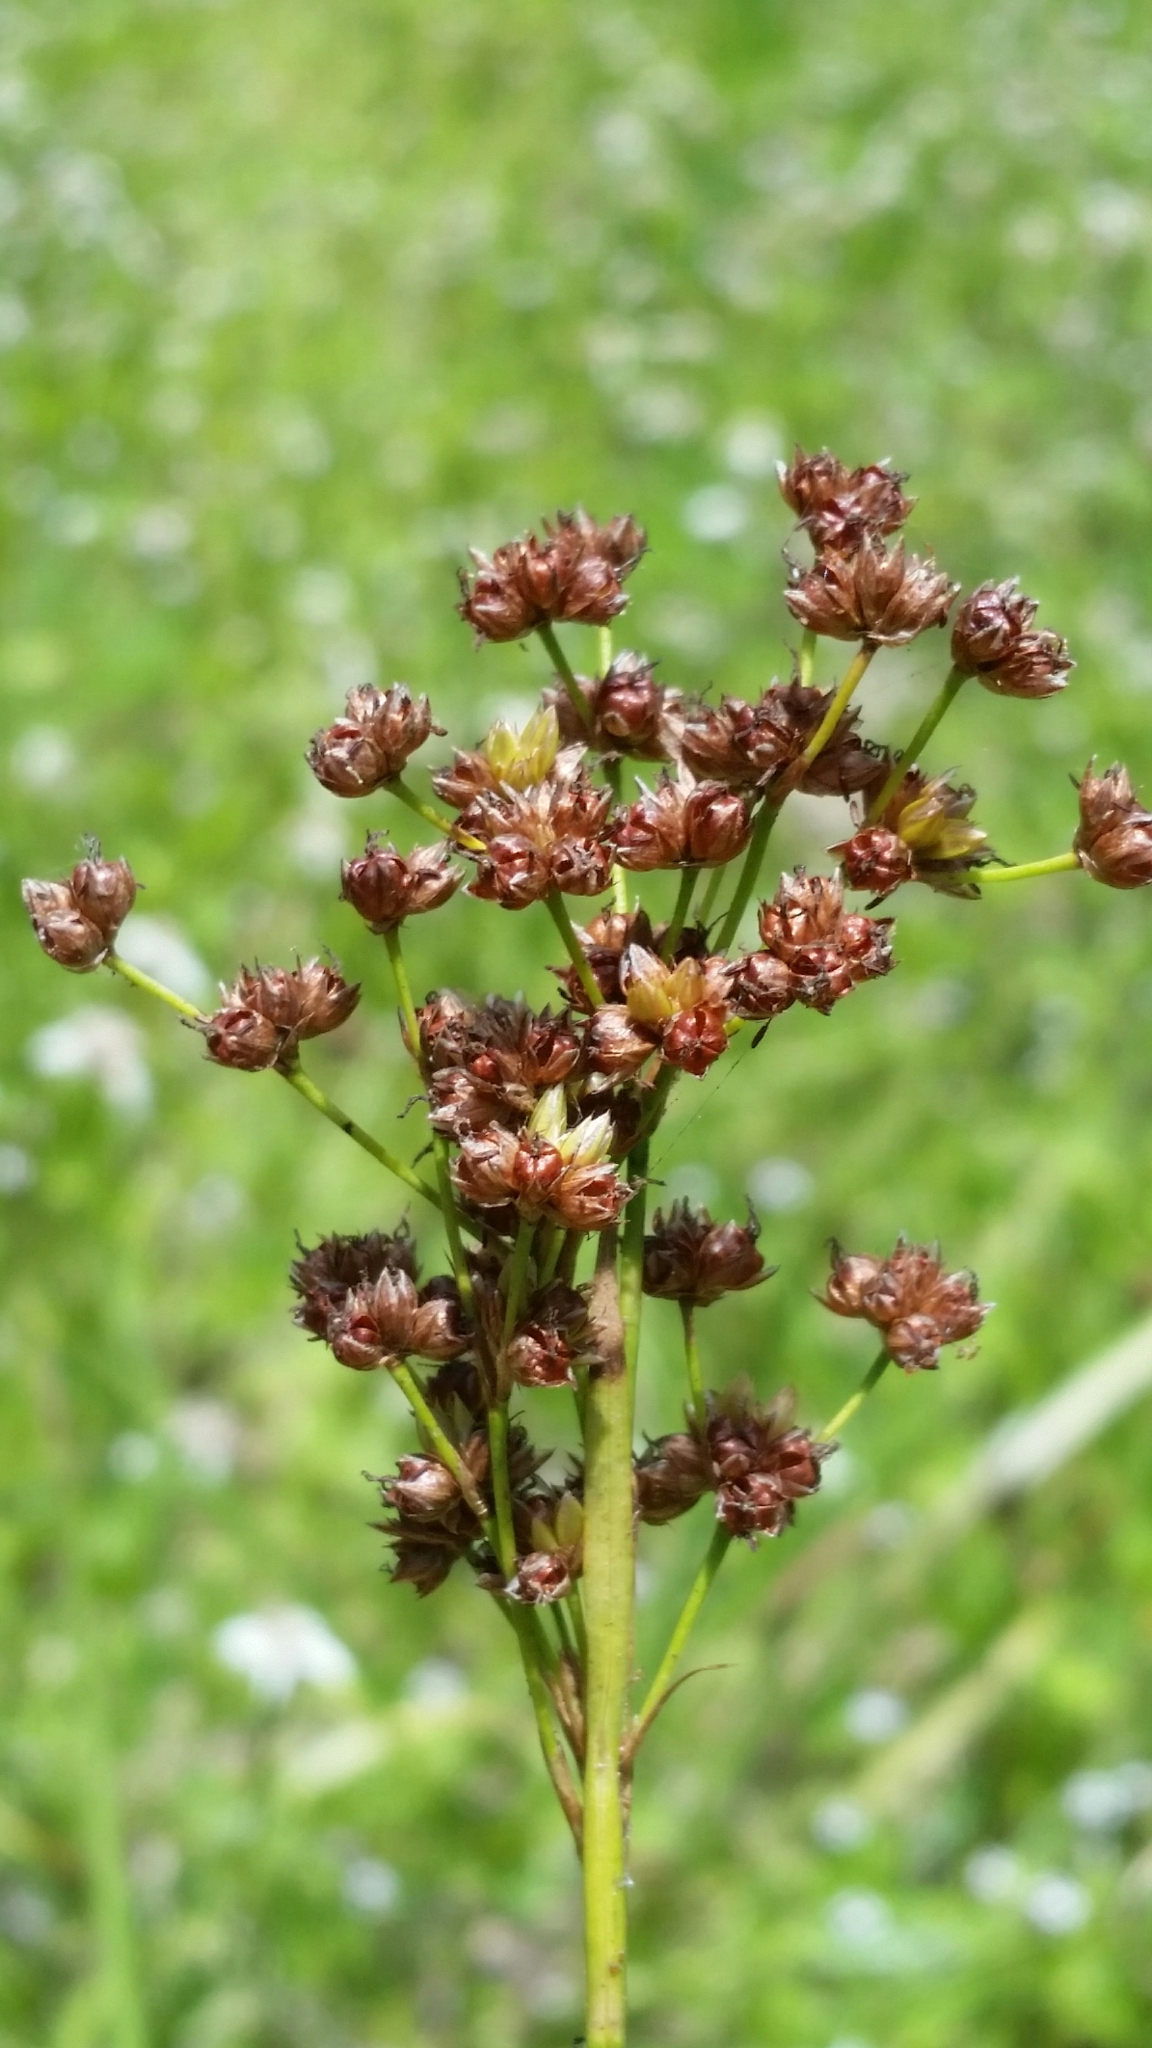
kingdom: Plantae
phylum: Tracheophyta
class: Liliopsida
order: Poales
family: Juncaceae
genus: Juncus
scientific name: Juncus biflorus
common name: Two-flowered rush
